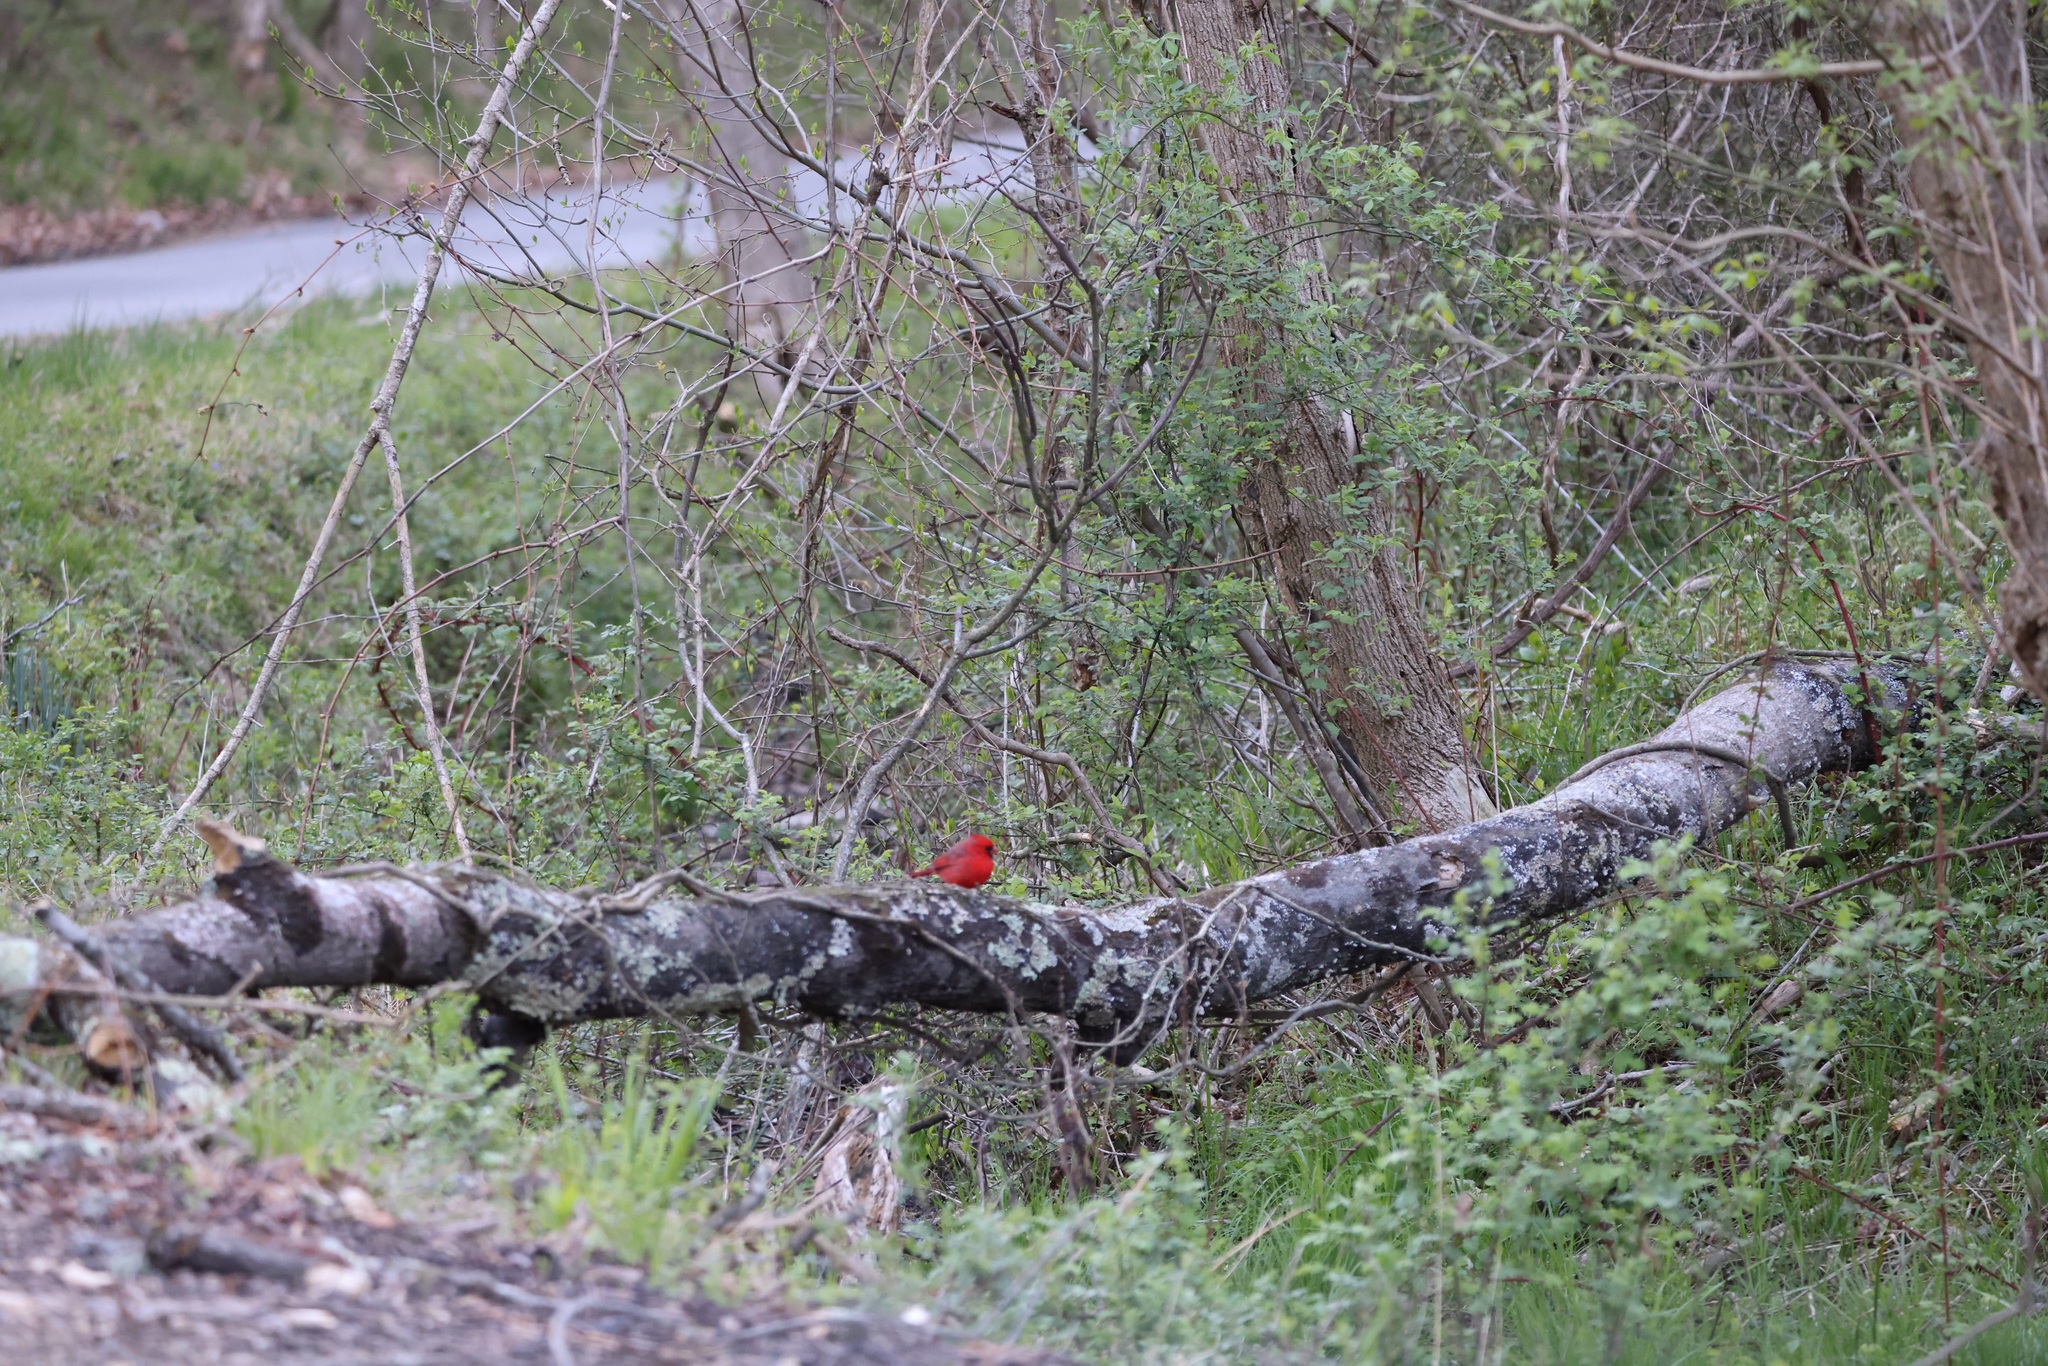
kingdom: Animalia
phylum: Chordata
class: Aves
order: Passeriformes
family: Cardinalidae
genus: Cardinalis
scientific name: Cardinalis cardinalis
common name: Northern cardinal
